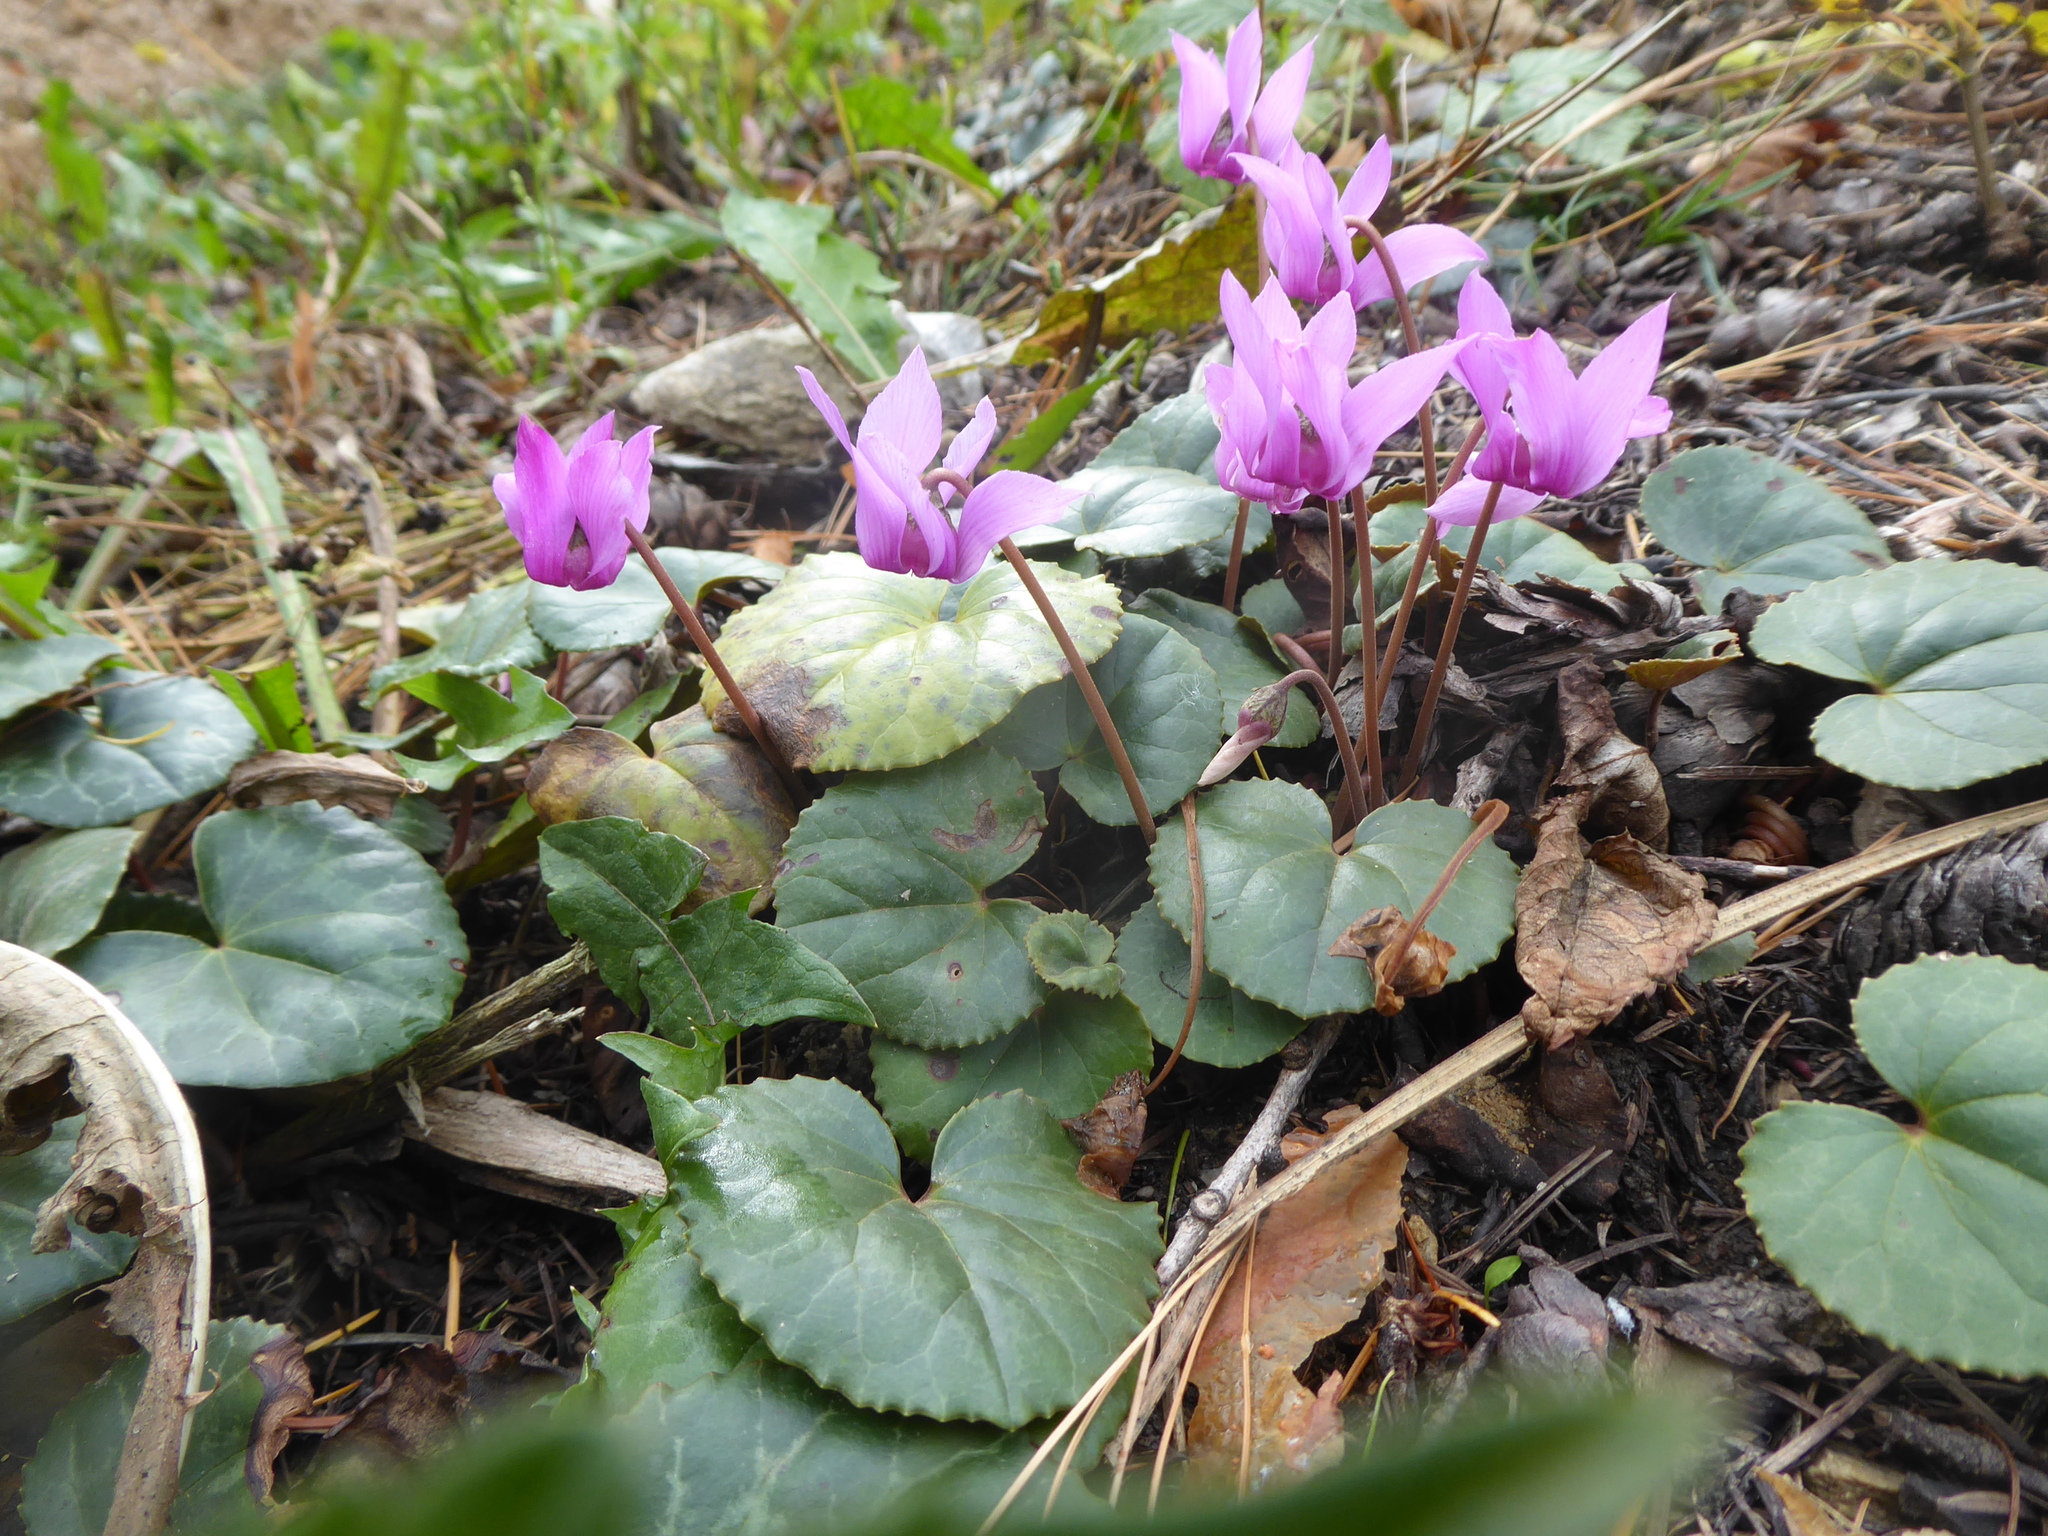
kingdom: Plantae
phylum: Tracheophyta
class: Magnoliopsida
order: Ericales
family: Primulaceae
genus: Cyclamen
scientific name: Cyclamen purpurascens
